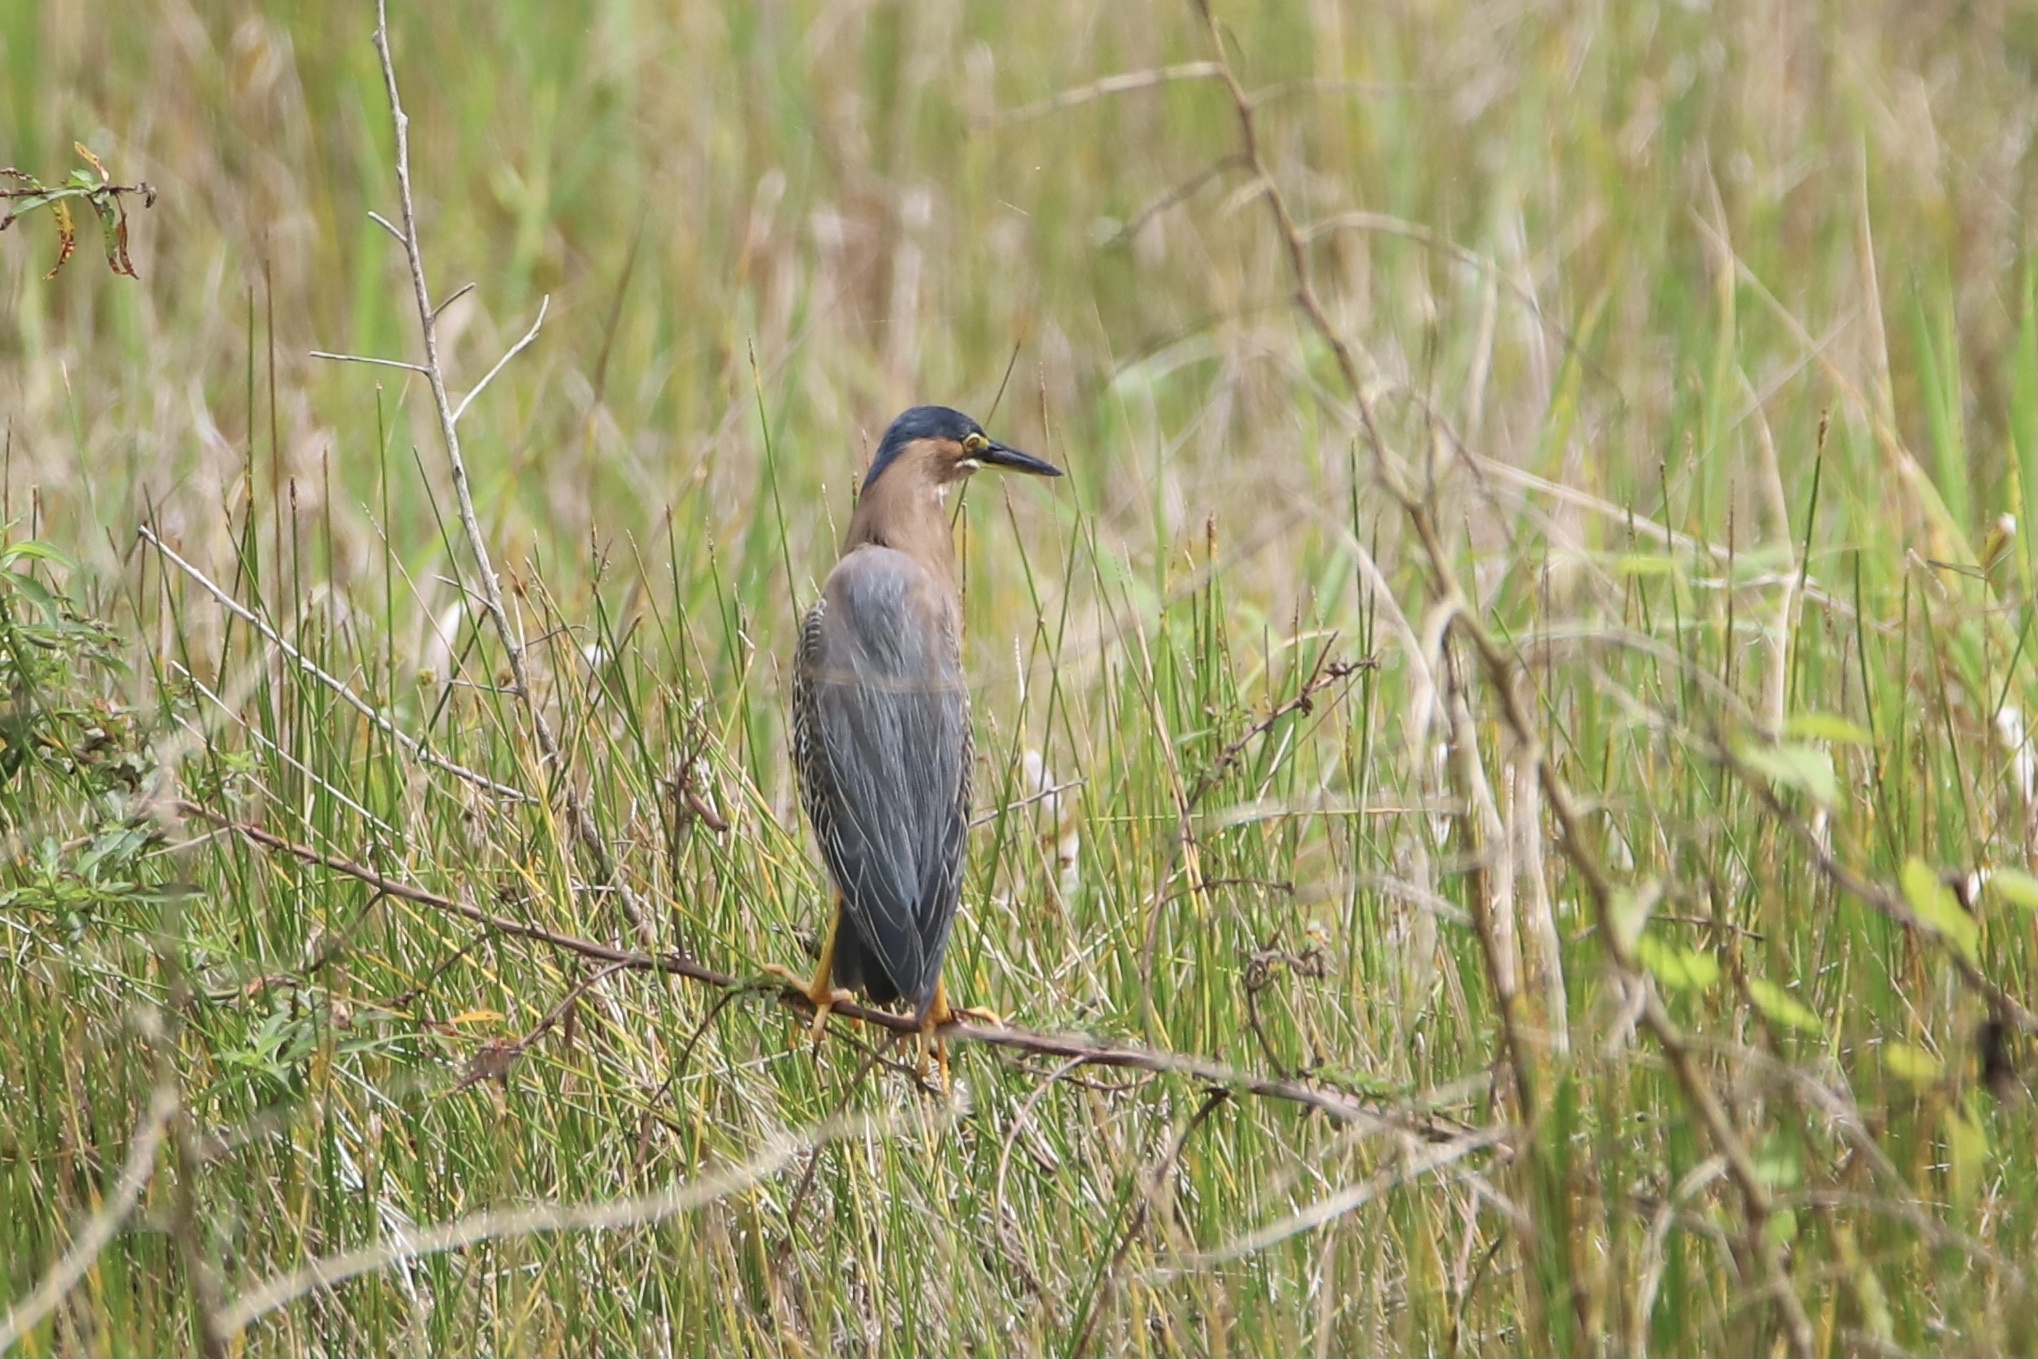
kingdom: Animalia
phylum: Chordata
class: Aves
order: Pelecaniformes
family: Ardeidae
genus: Butorides
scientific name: Butorides virescens
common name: Green heron
